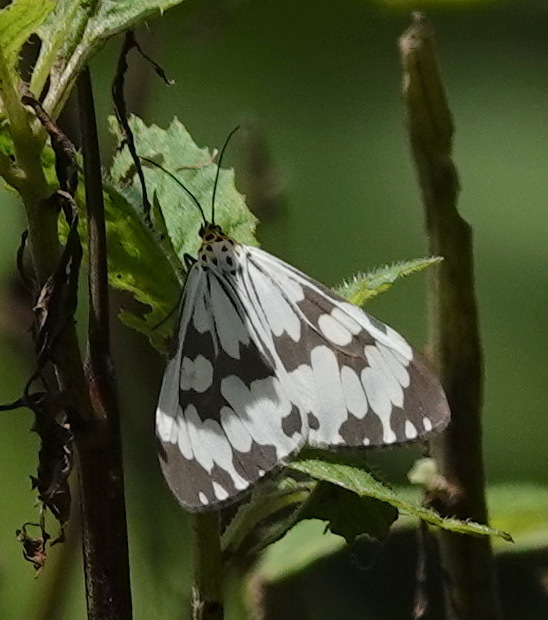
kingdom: Animalia
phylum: Arthropoda
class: Insecta
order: Lepidoptera
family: Erebidae
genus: Nyctemera
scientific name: Nyctemera adversata
